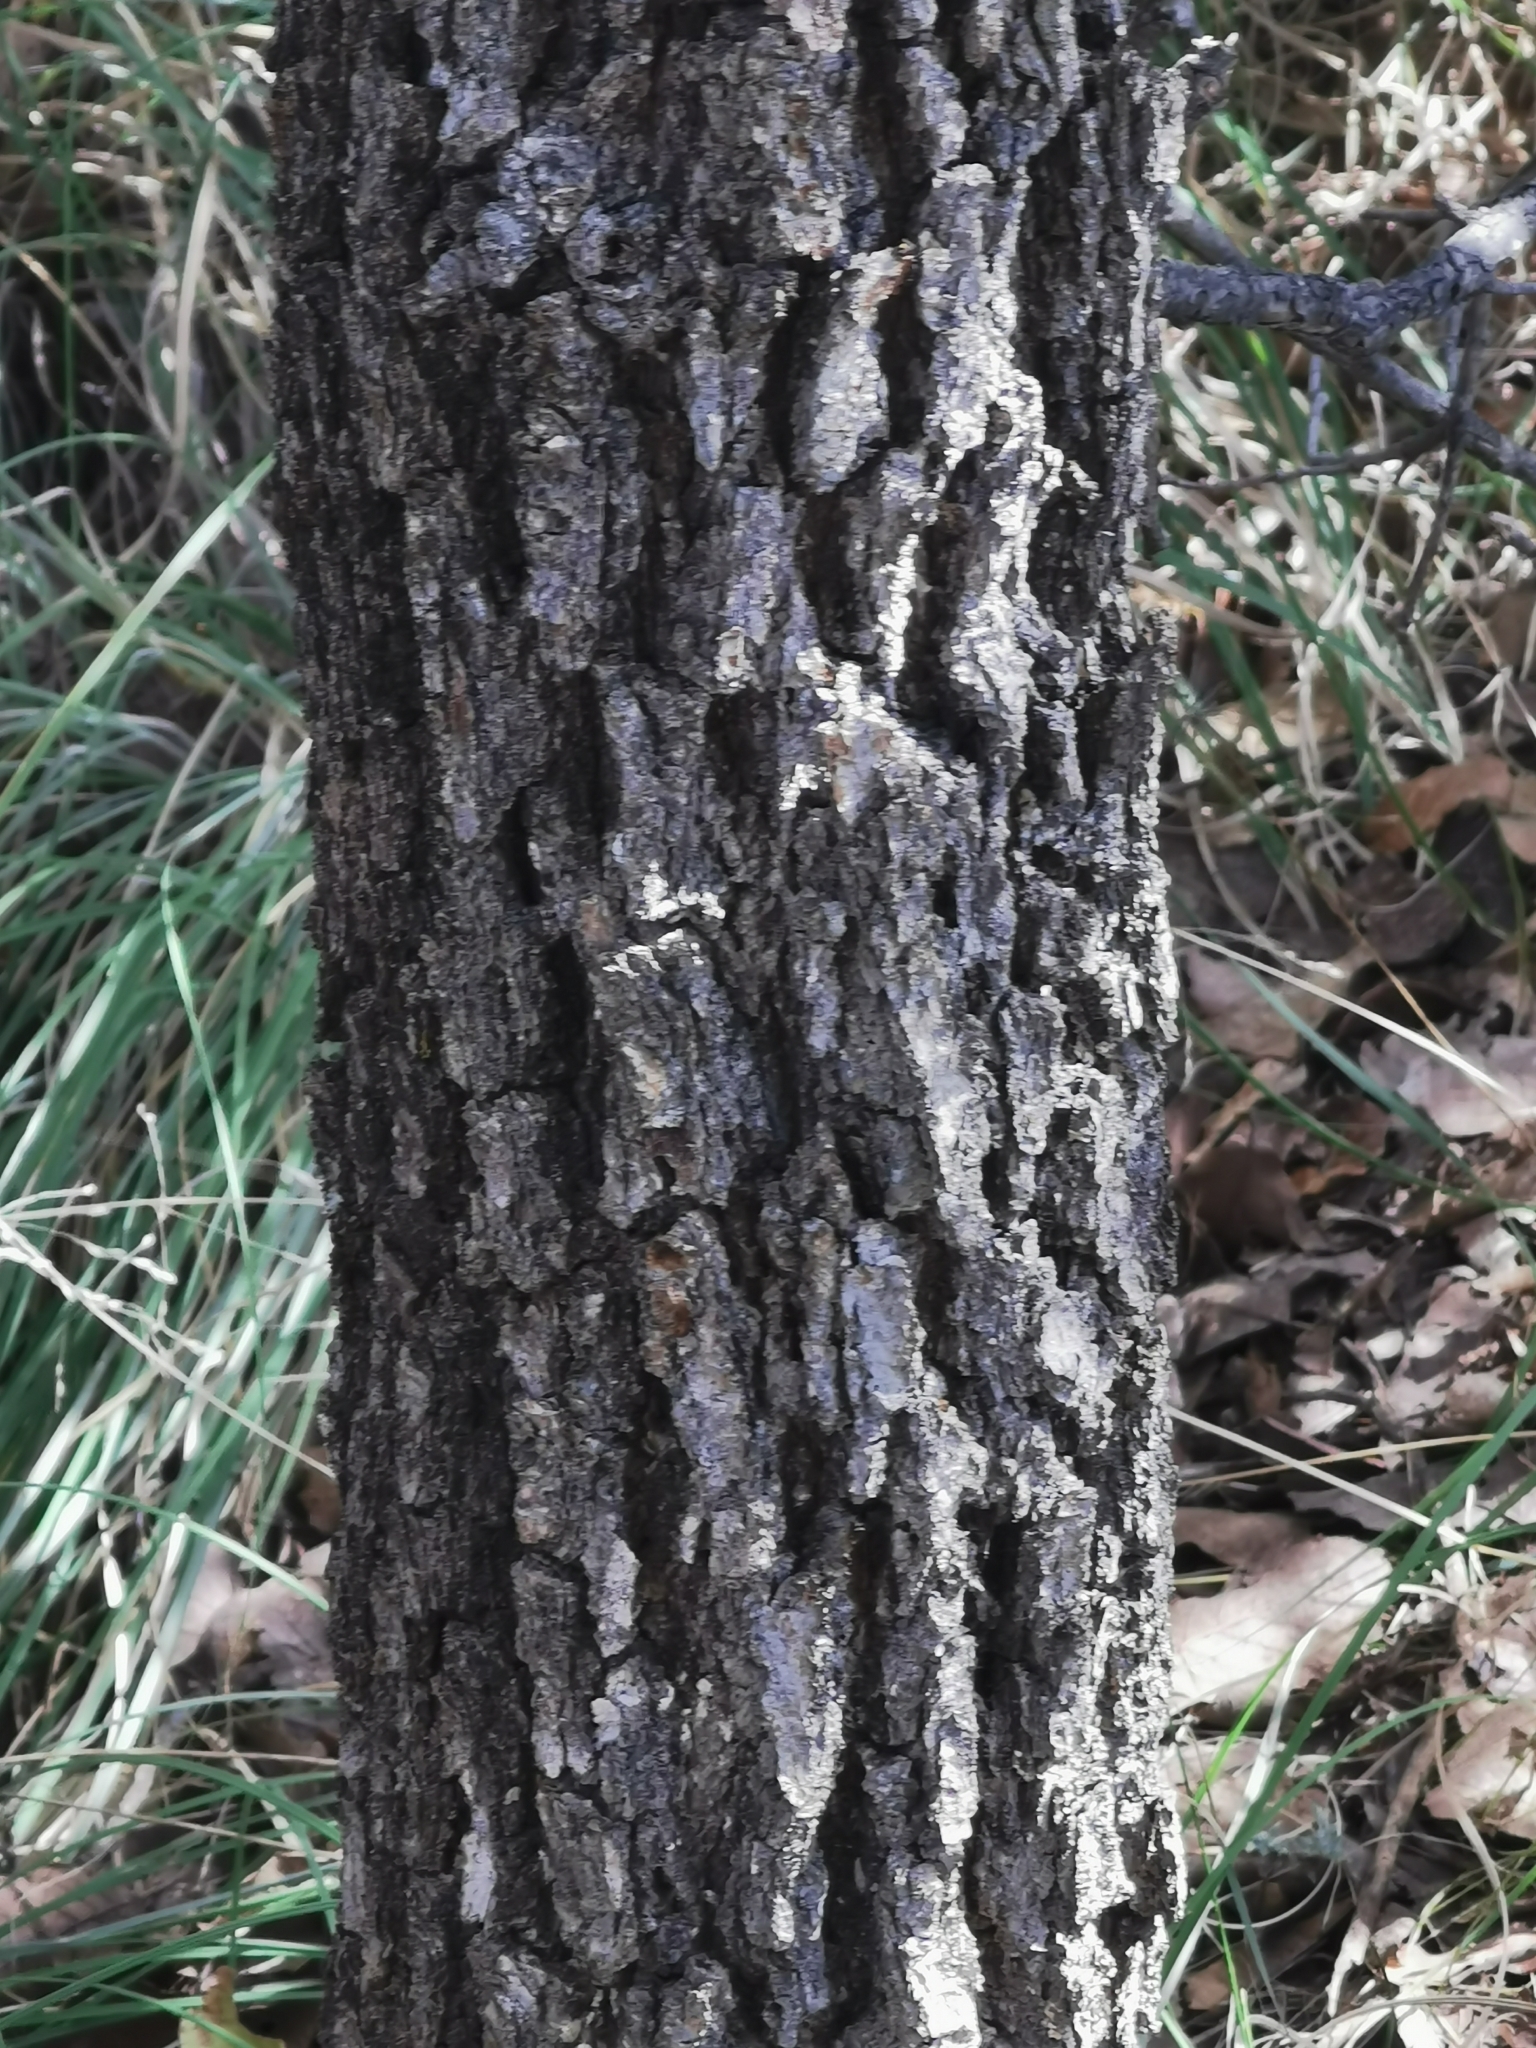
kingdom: Plantae
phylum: Tracheophyta
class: Magnoliopsida
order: Fagales
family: Fagaceae
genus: Quercus
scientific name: Quercus arizonica
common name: Arizona white oak
